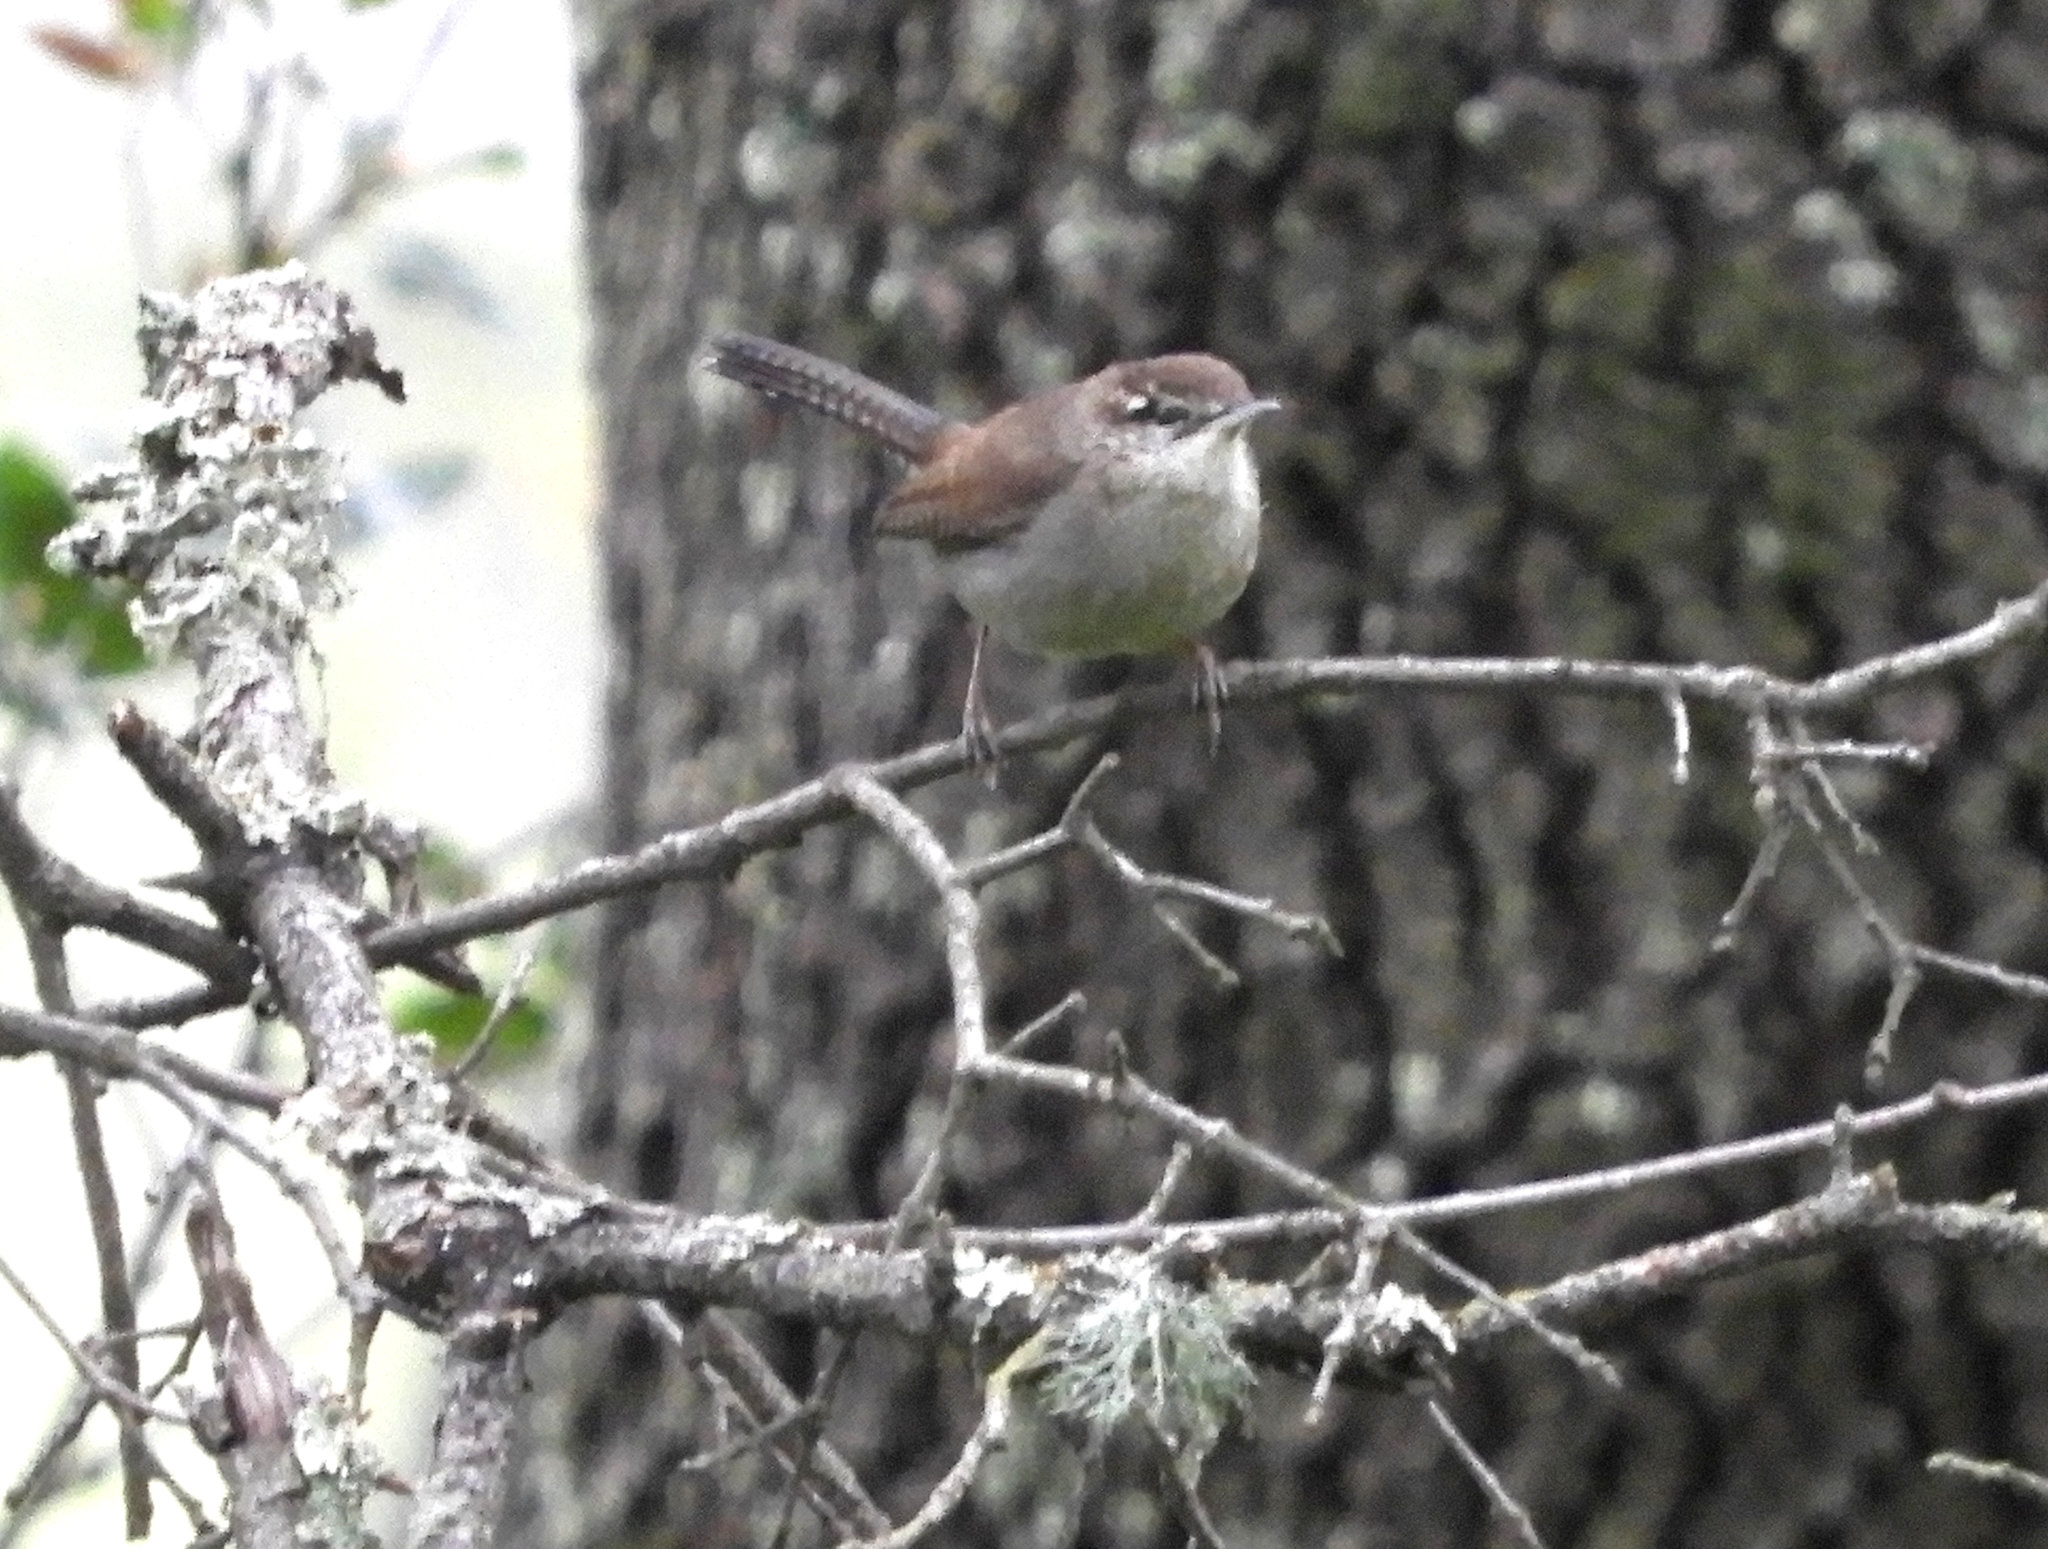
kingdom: Animalia
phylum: Chordata
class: Aves
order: Passeriformes
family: Troglodytidae
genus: Thryomanes
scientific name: Thryomanes bewickii
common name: Bewick's wren
